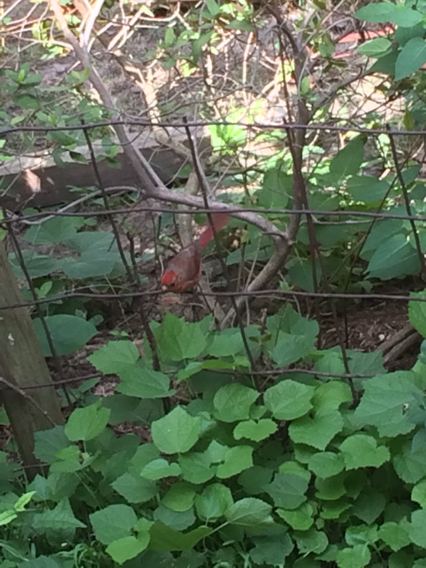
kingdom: Animalia
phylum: Chordata
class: Aves
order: Passeriformes
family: Cardinalidae
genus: Cardinalis
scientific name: Cardinalis cardinalis
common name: Northern cardinal
